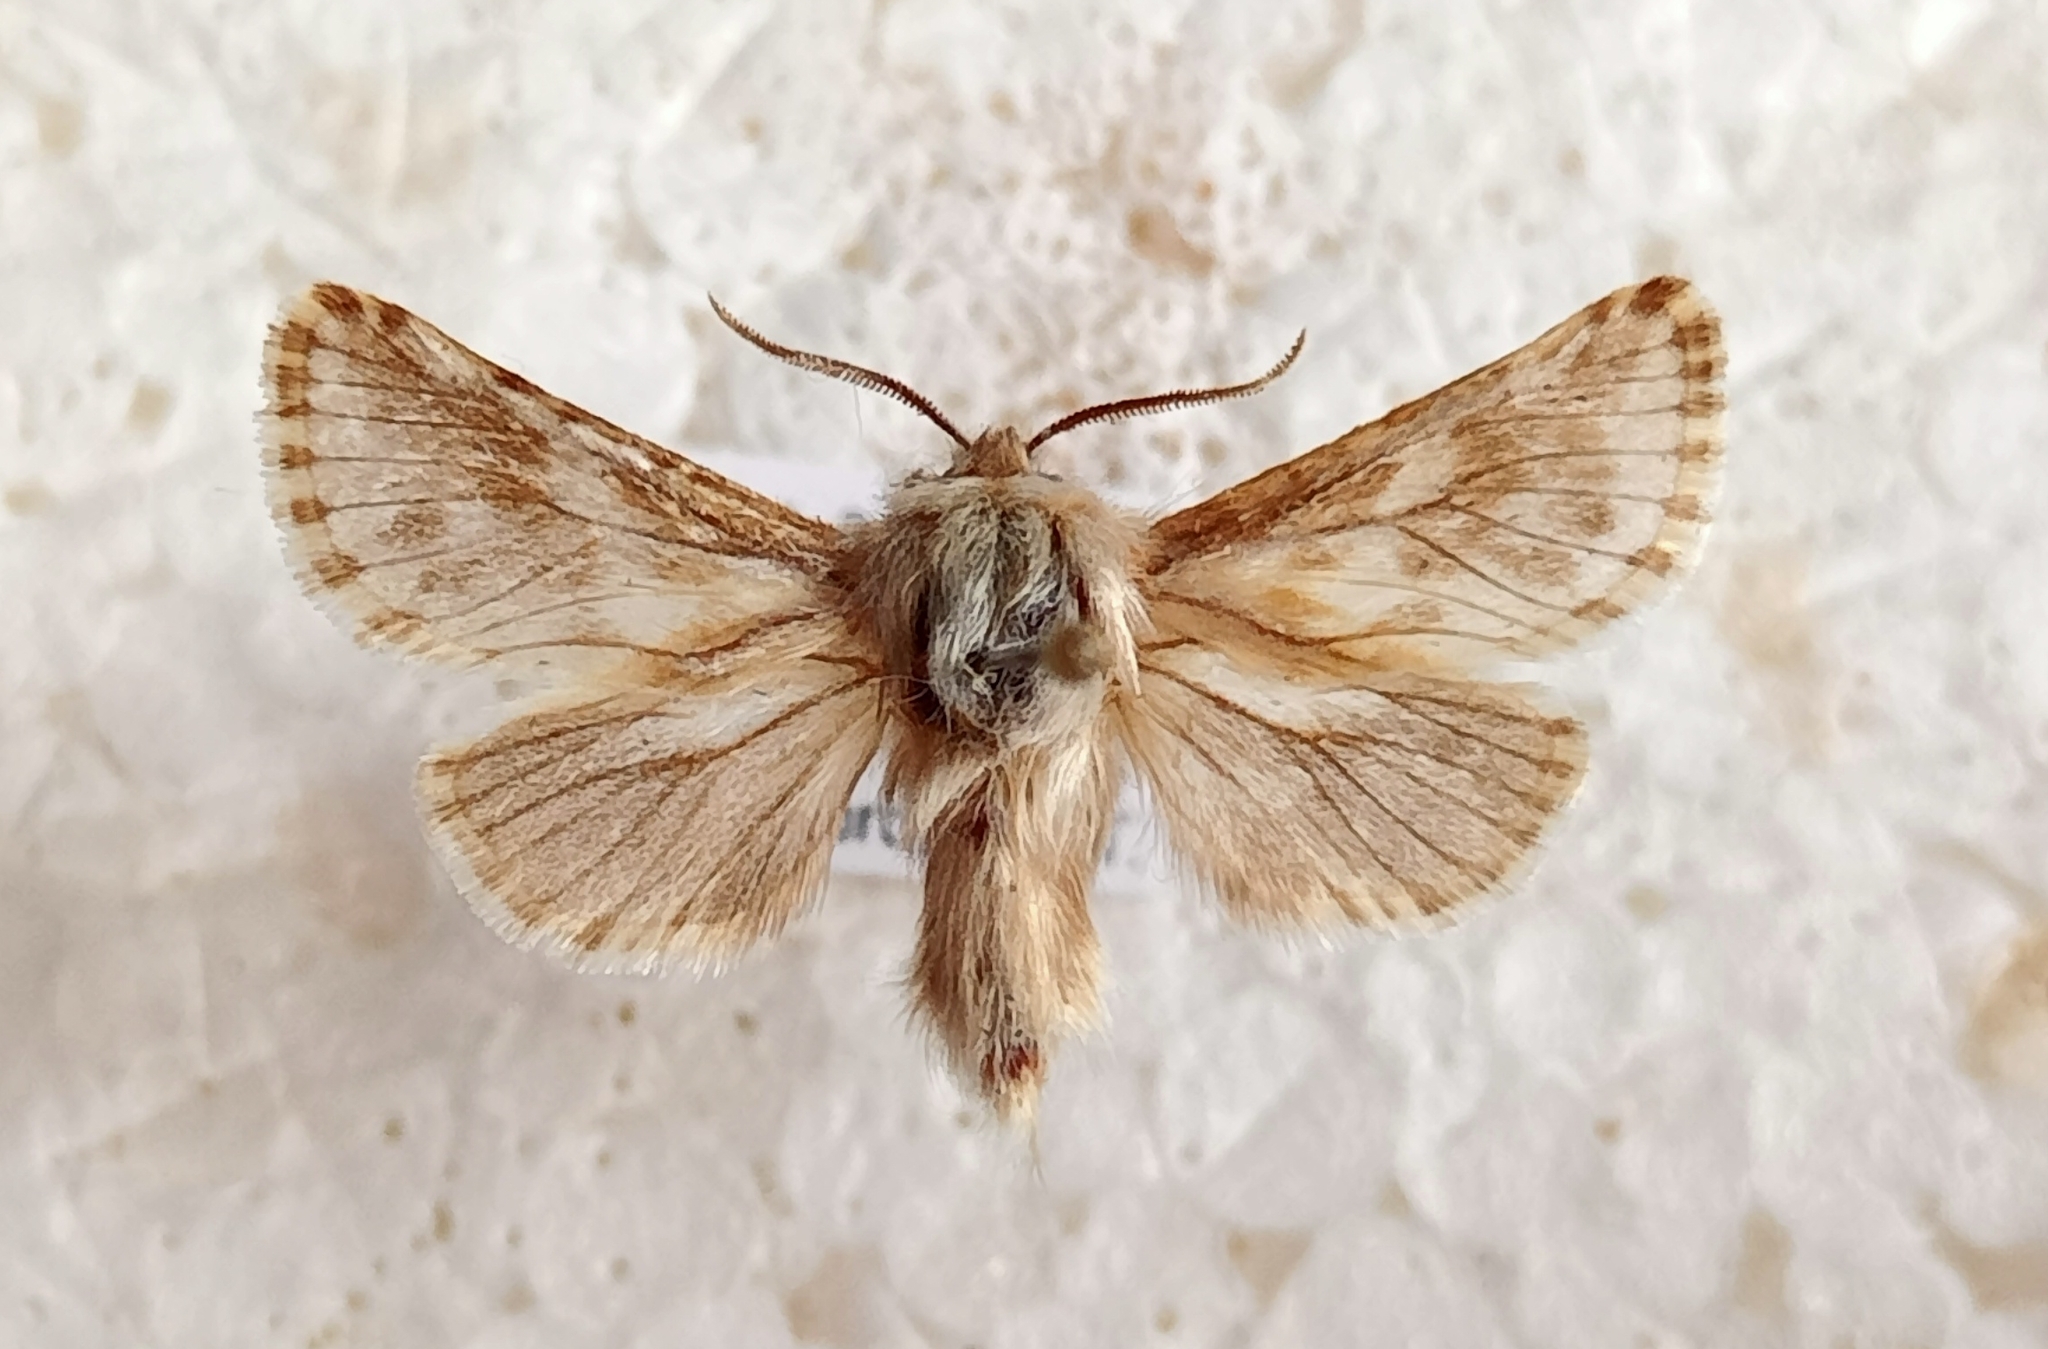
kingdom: Animalia
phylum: Arthropoda
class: Insecta
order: Lepidoptera
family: Cossidae
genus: Dyspessa
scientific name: Dyspessa ulula
